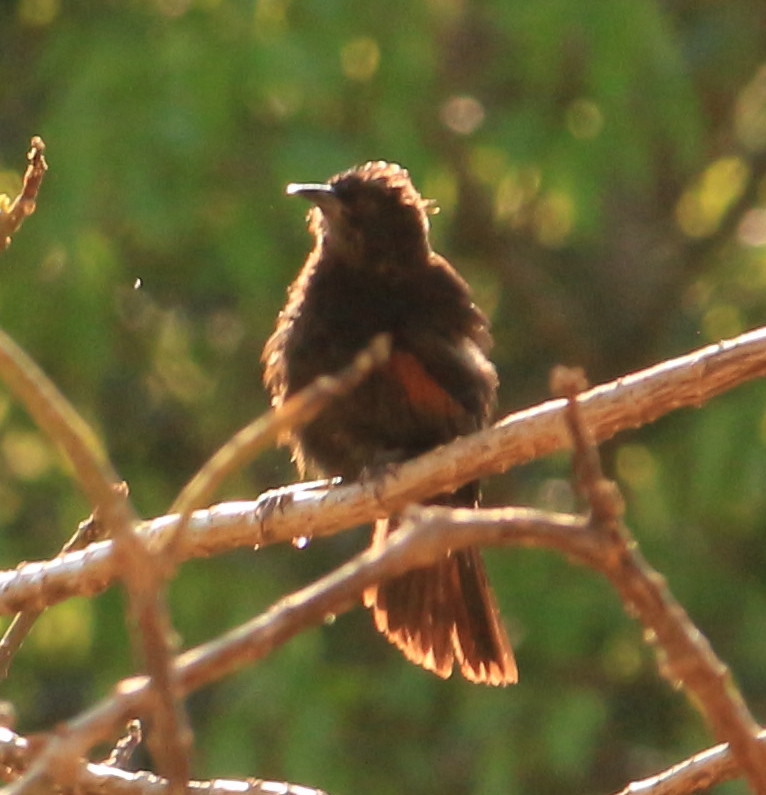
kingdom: Animalia
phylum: Chordata
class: Aves
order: Passeriformes
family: Icteridae
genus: Icterus
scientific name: Icterus cayanensis
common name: Epaulet oriole
